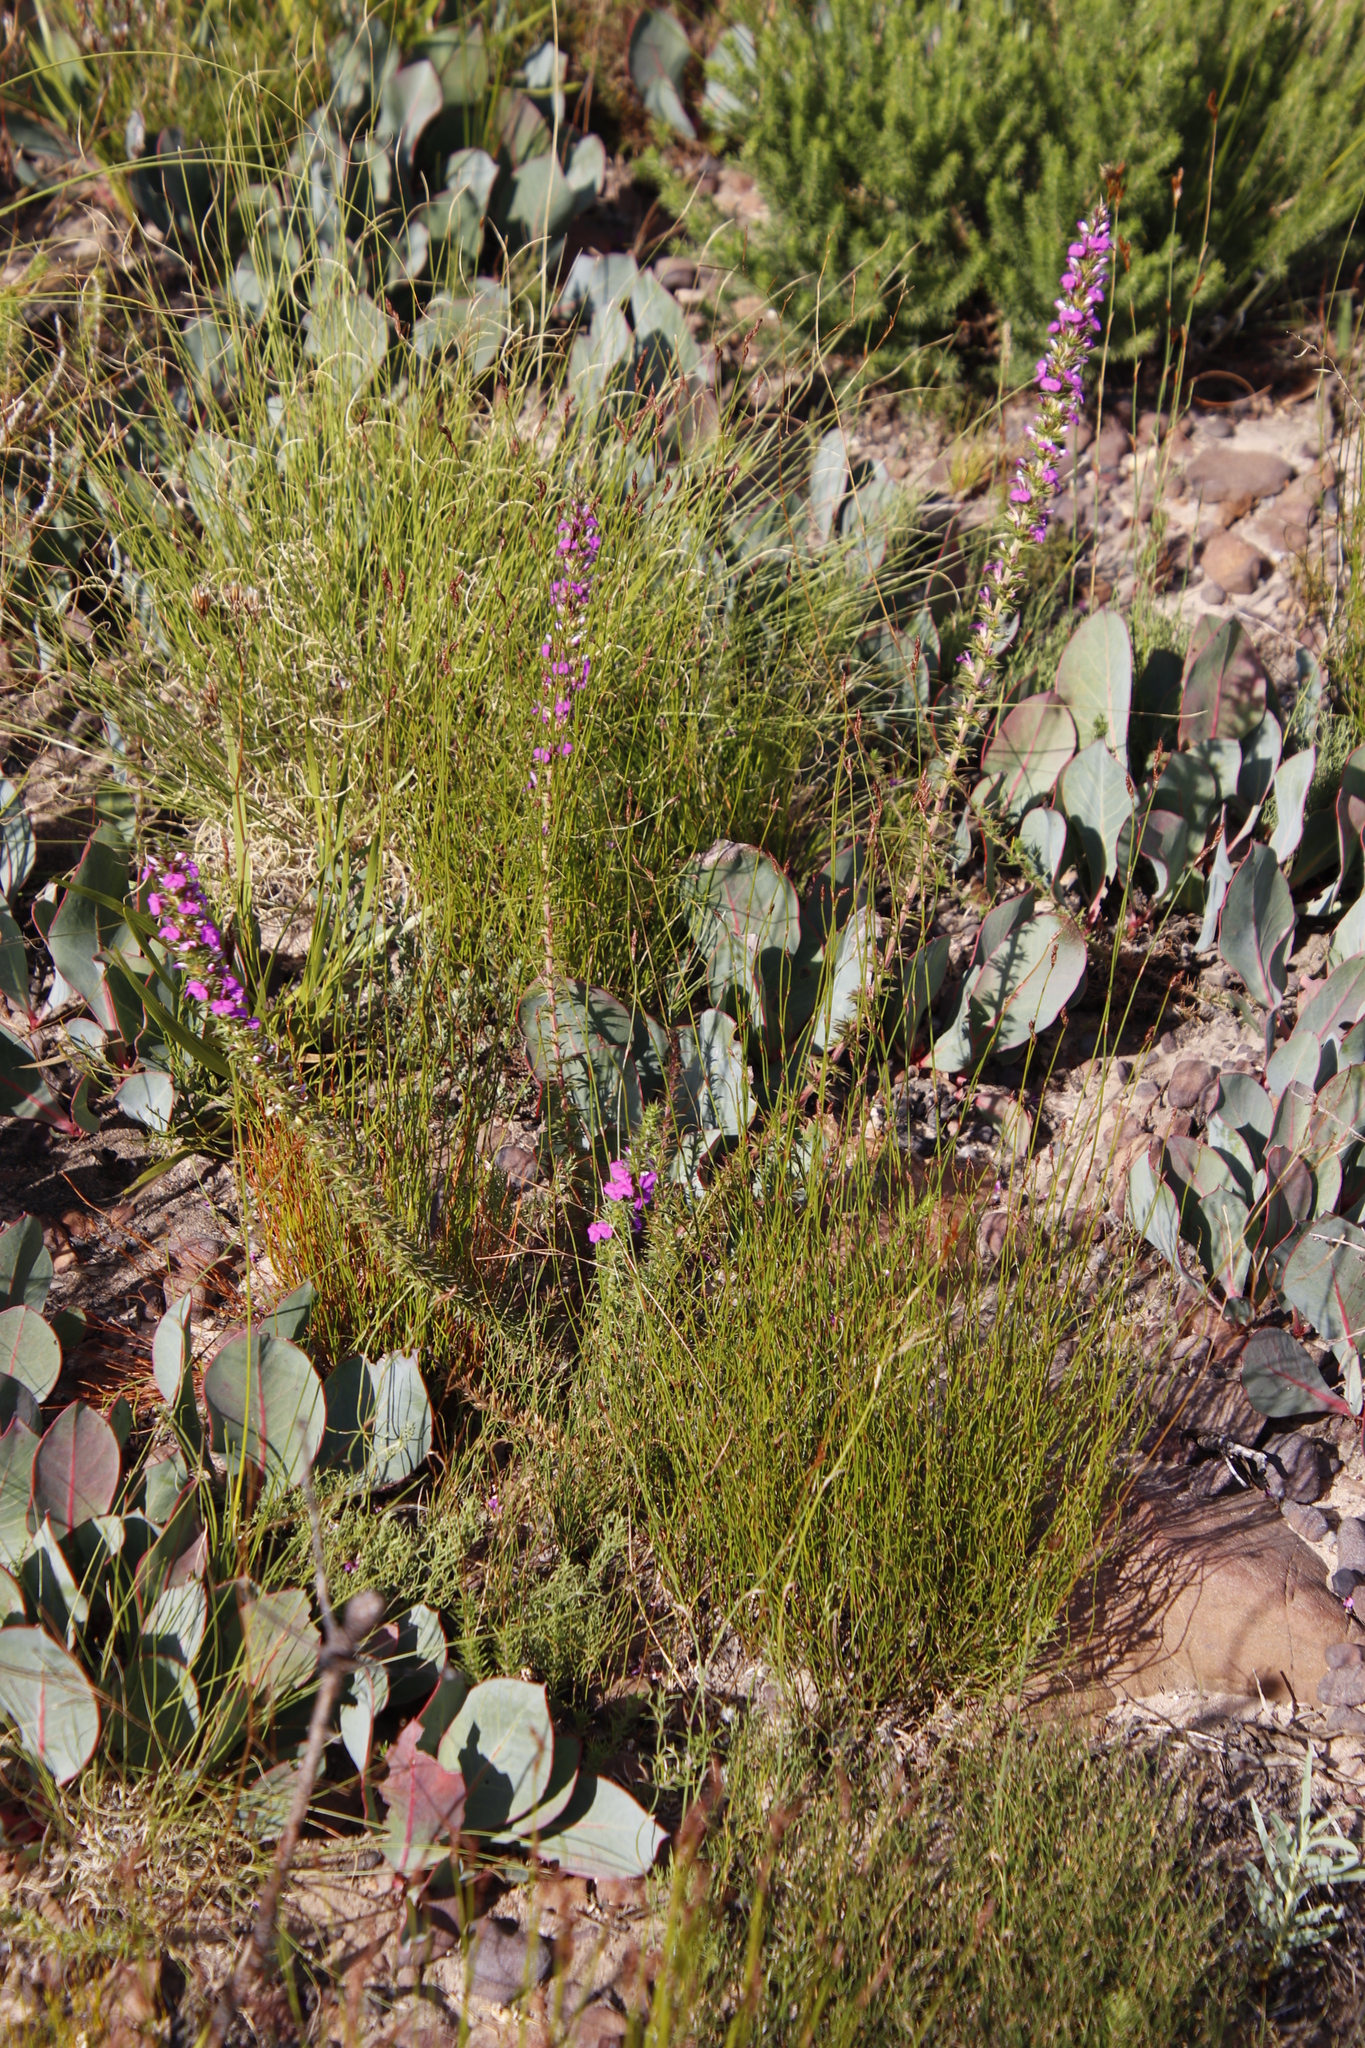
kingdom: Plantae
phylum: Tracheophyta
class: Magnoliopsida
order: Proteales
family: Proteaceae
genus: Protea
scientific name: Protea acaulos
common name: Common ground sugarbush
